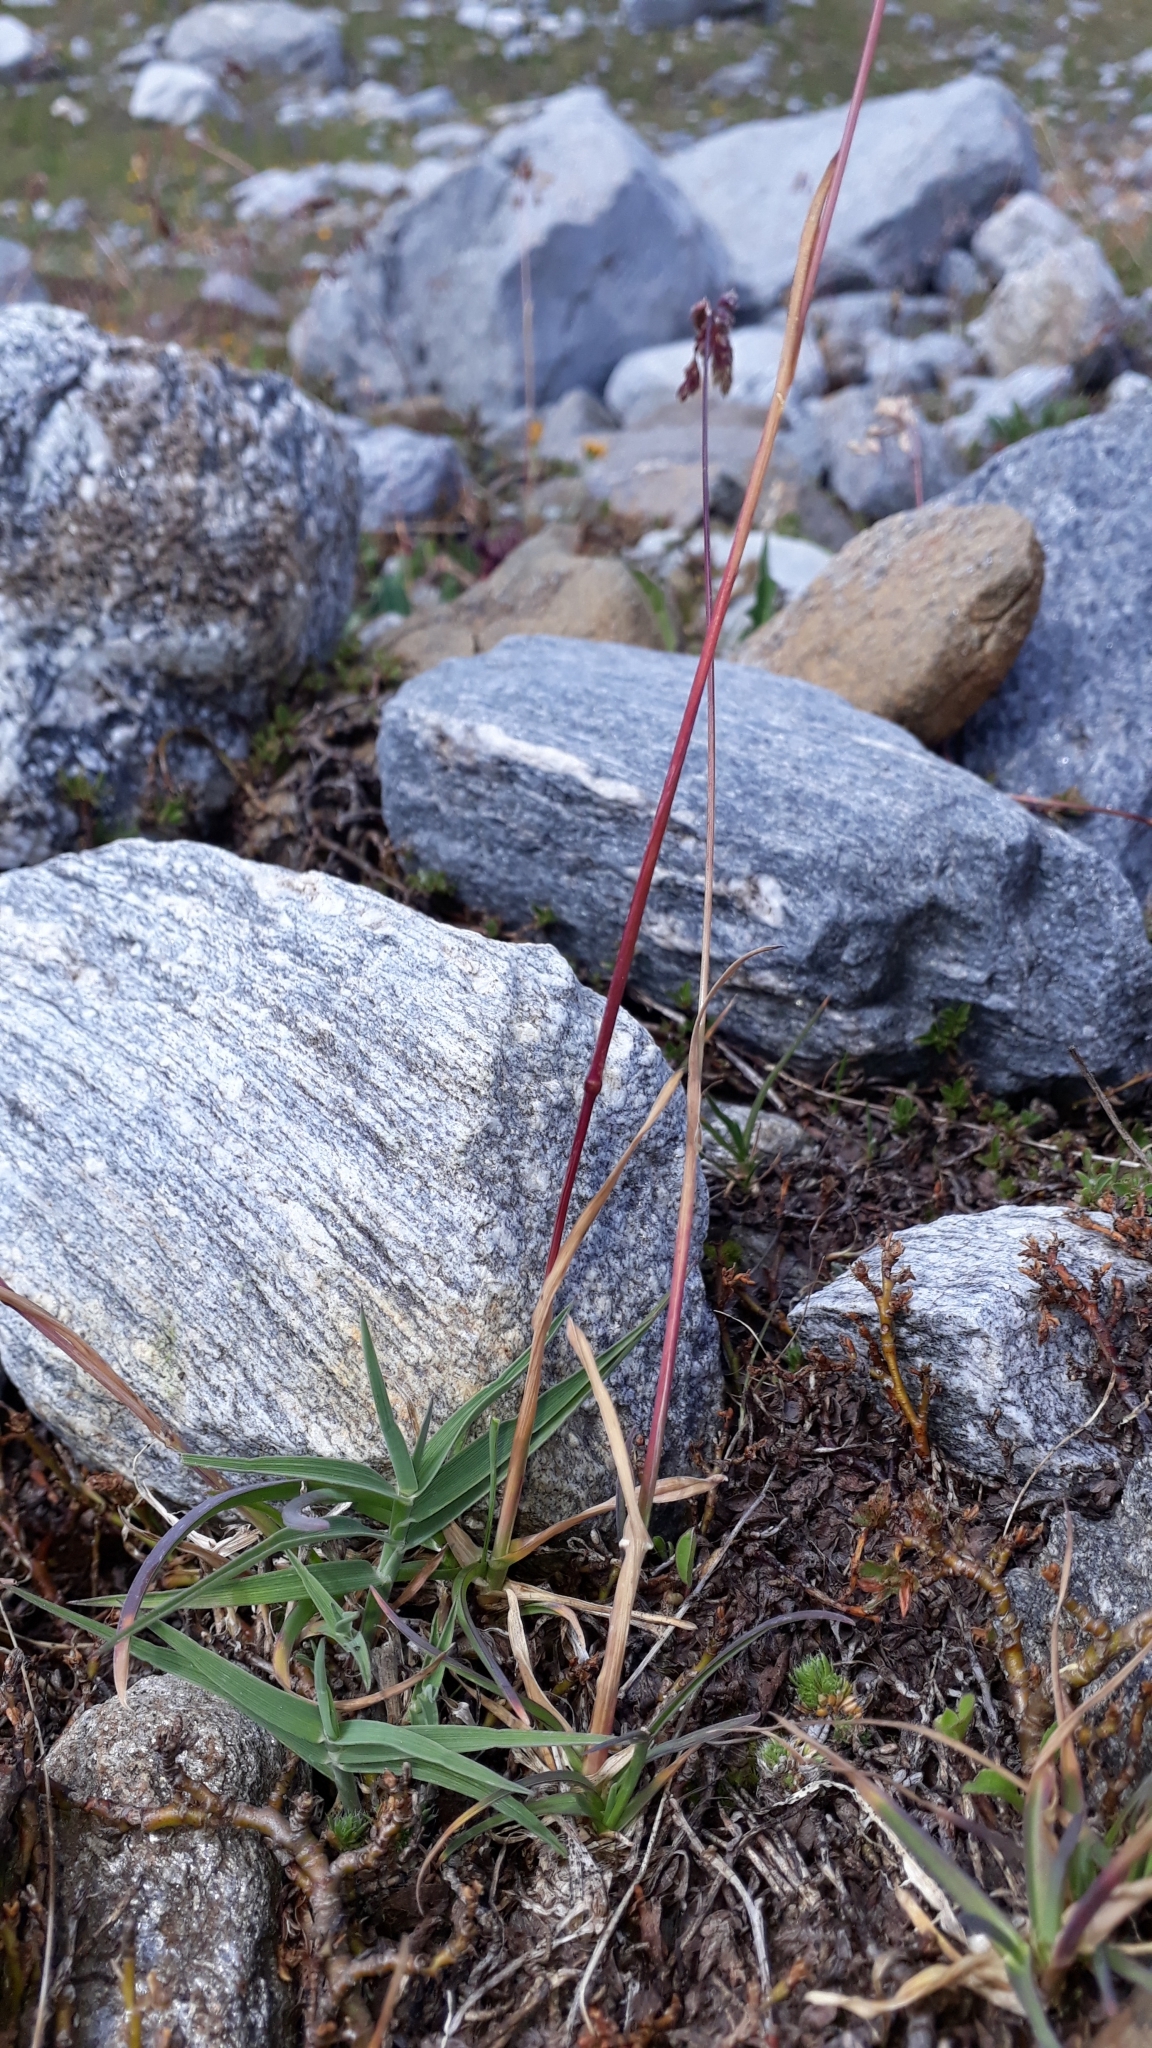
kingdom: Plantae
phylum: Tracheophyta
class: Liliopsida
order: Poales
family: Poaceae
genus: Poa
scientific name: Poa cenisia
